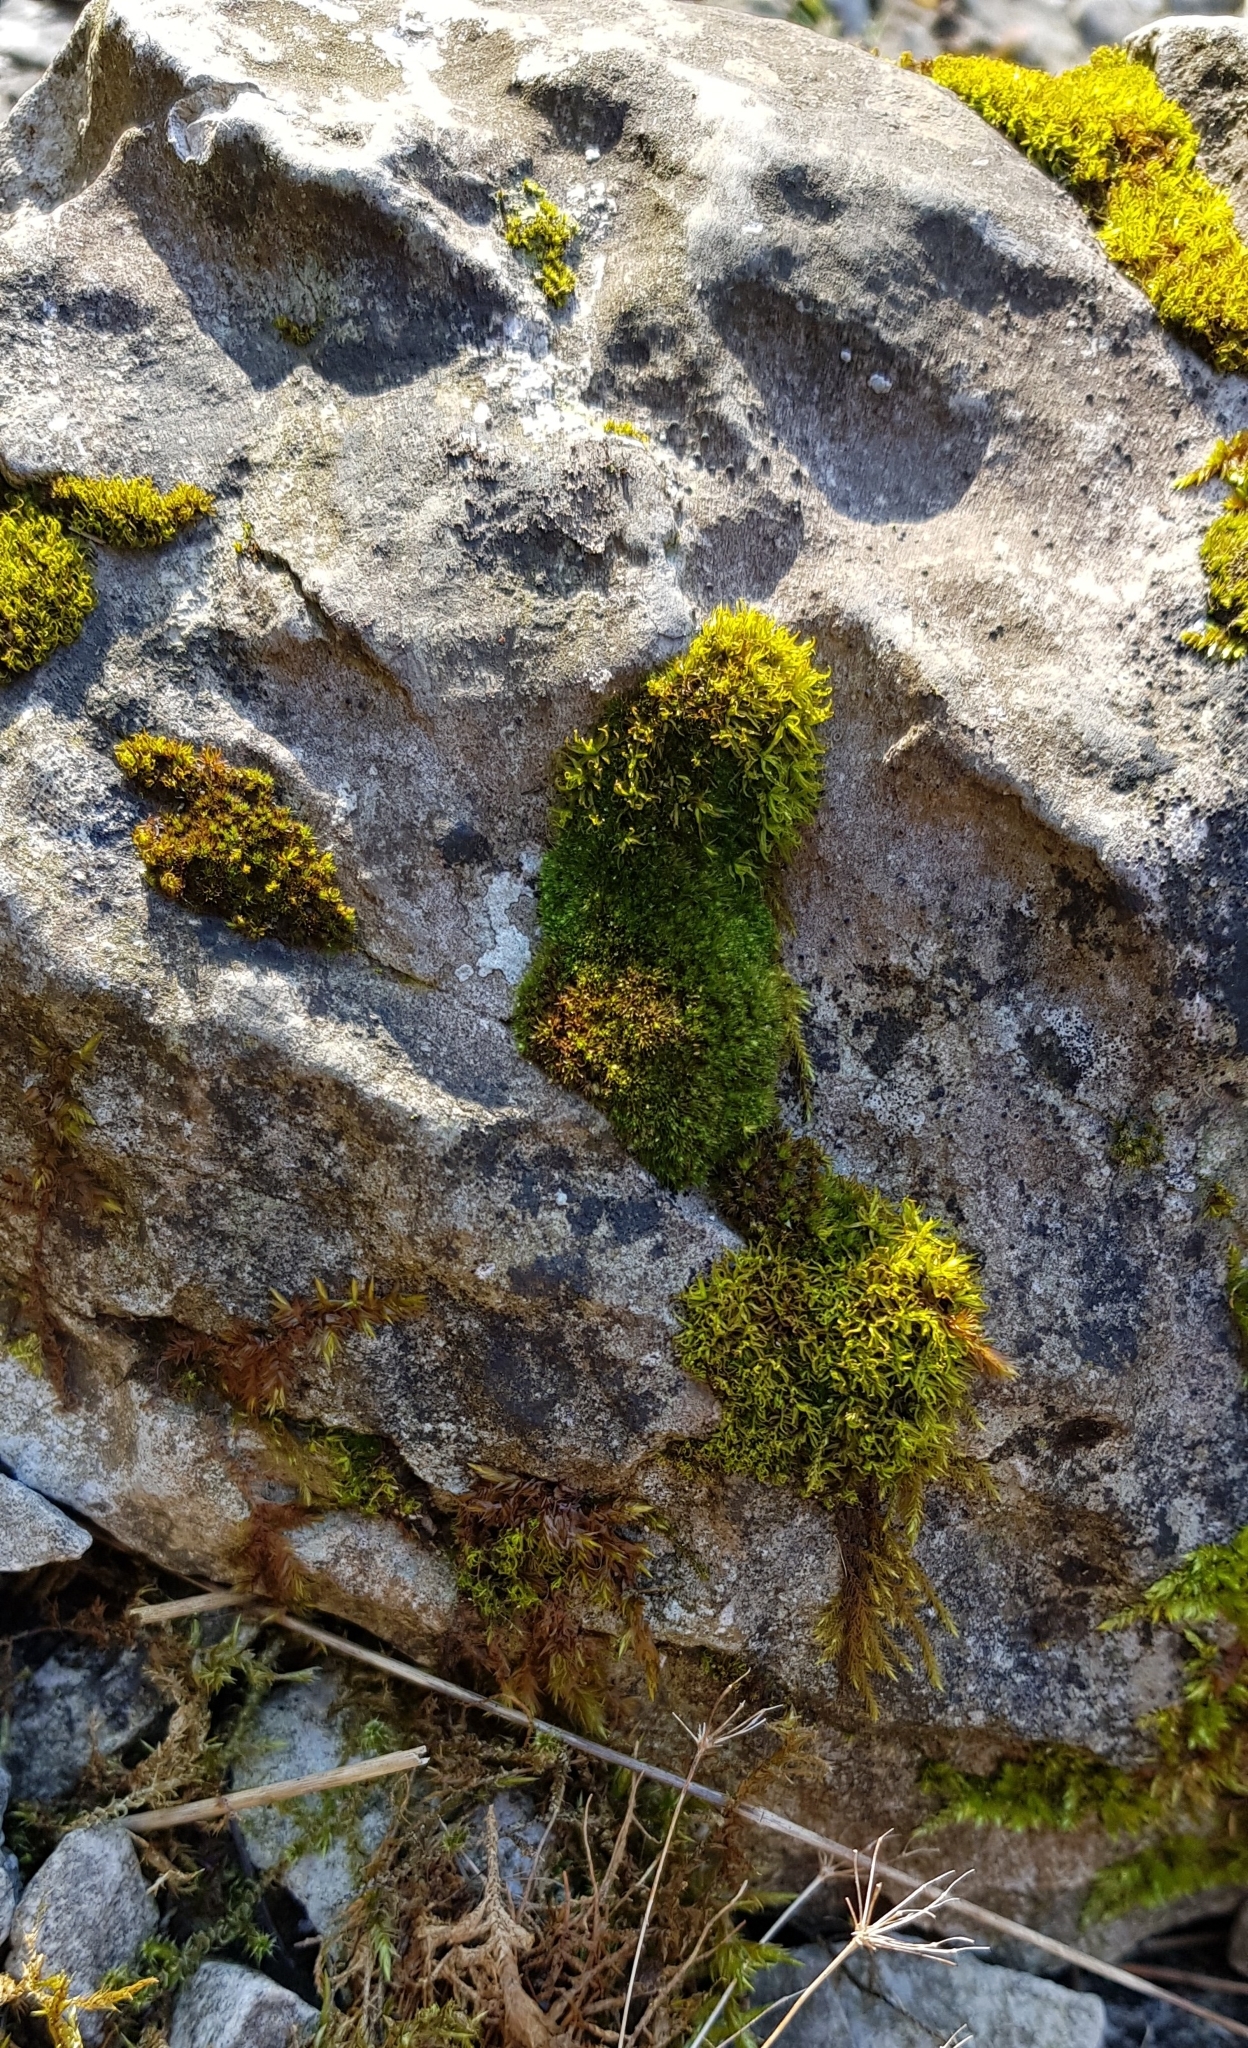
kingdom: Plantae
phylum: Bryophyta
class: Bryopsida
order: Bryales
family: Bryaceae
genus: Rosulabryum
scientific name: Rosulabryum capillare
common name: Capillary thread-moss
